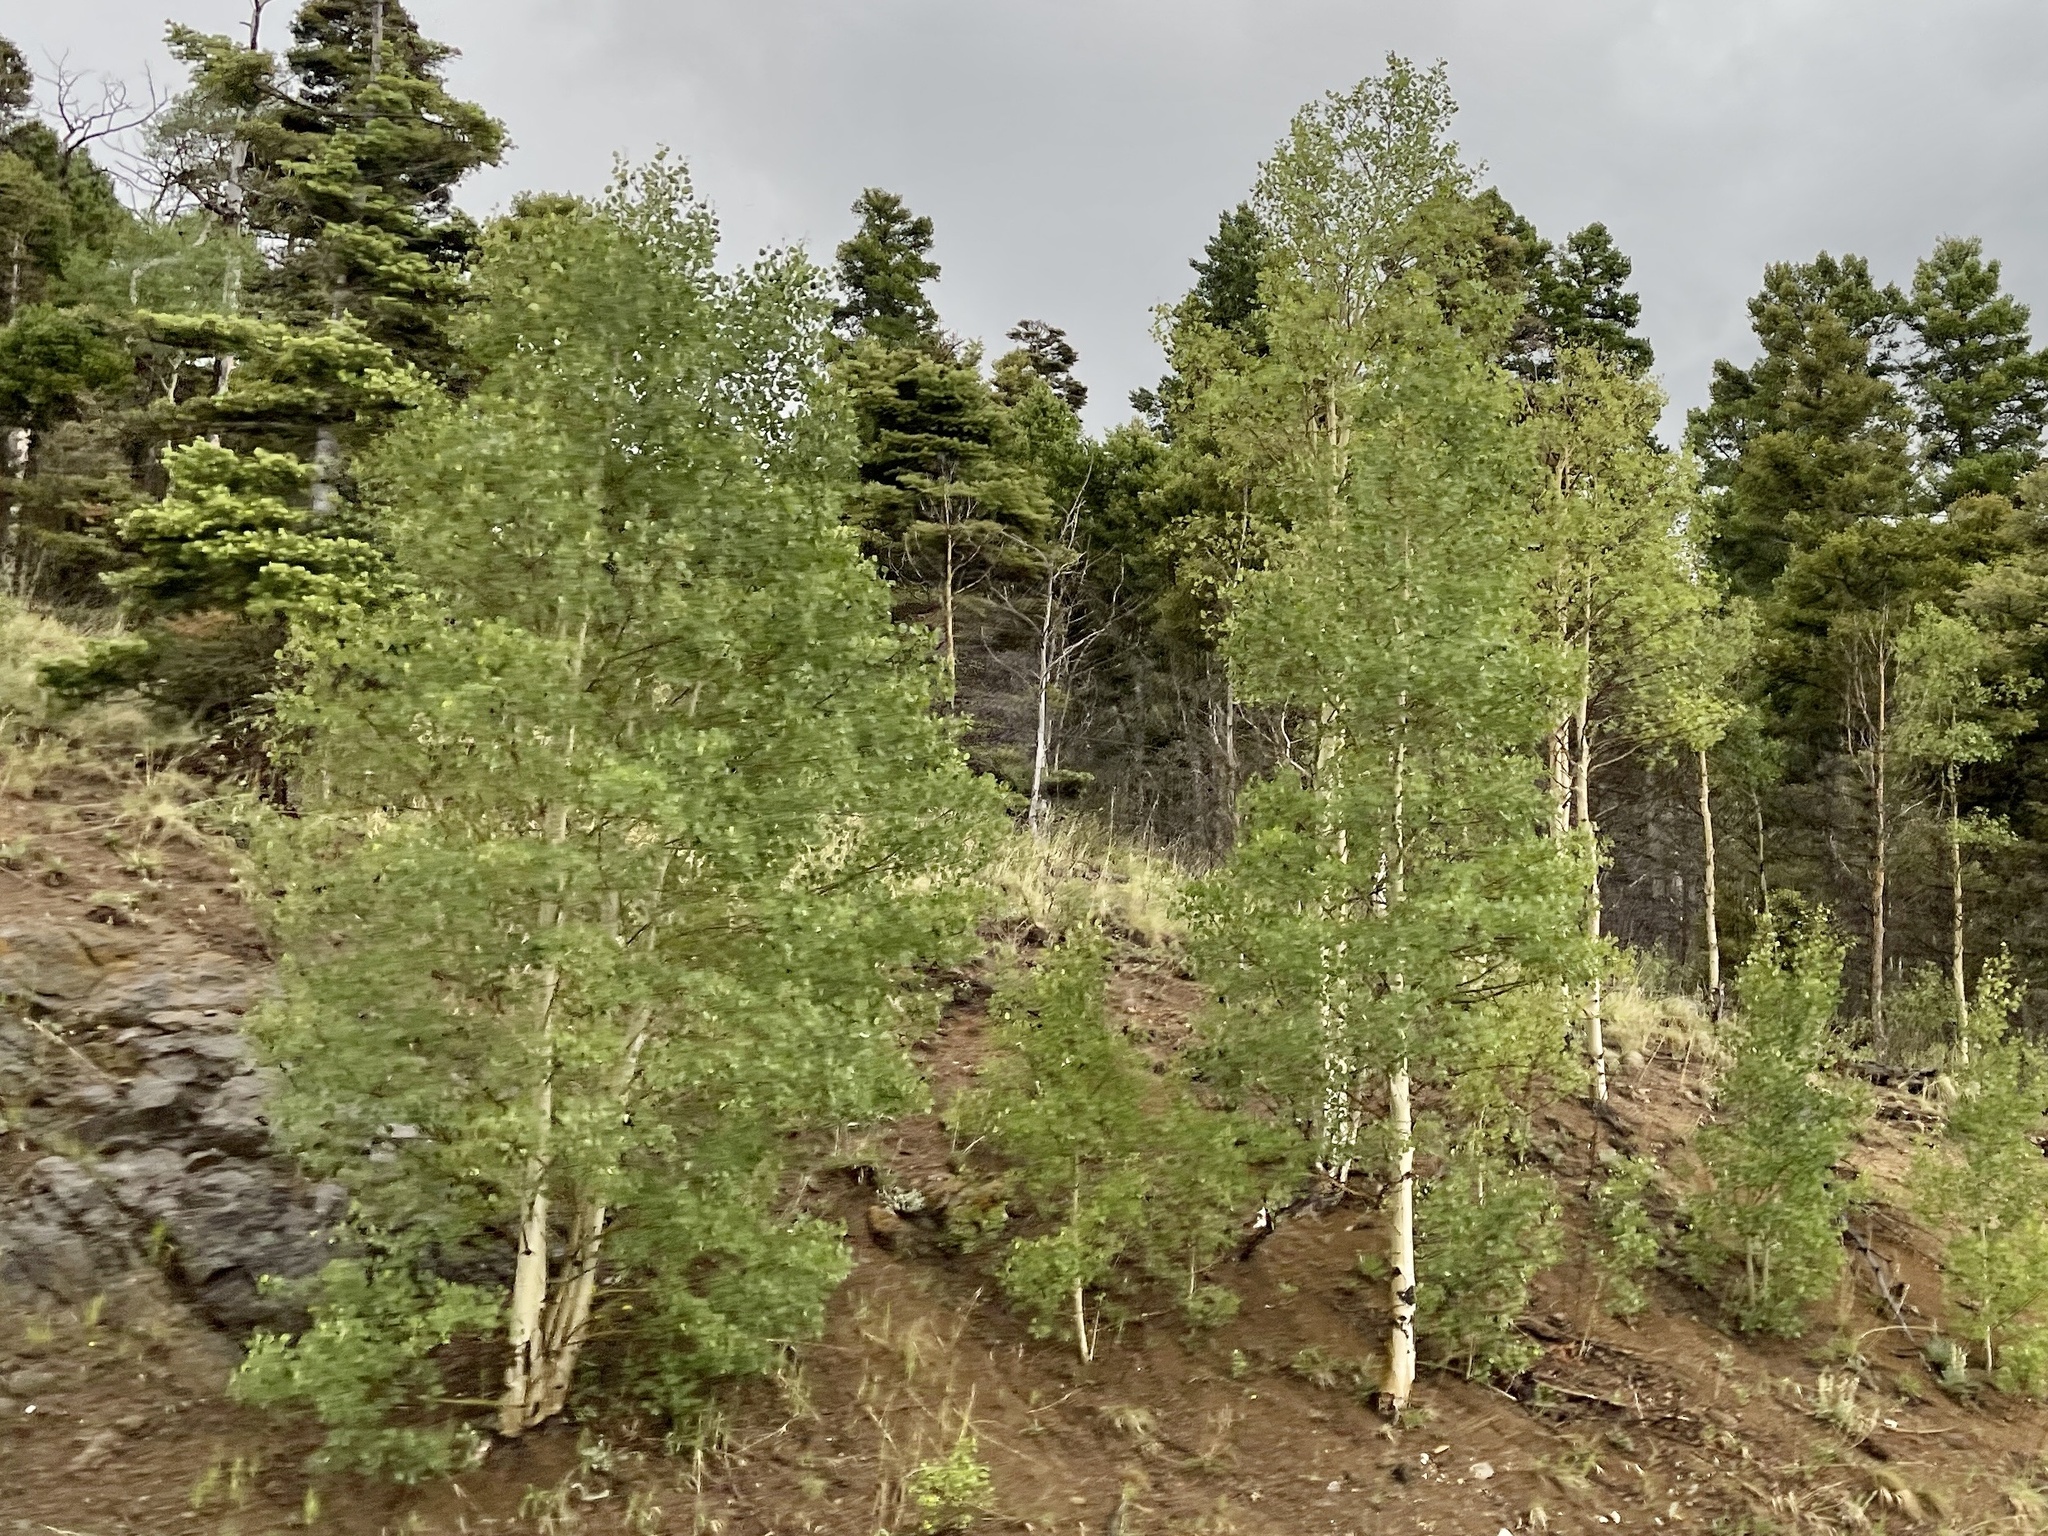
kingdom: Plantae
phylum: Tracheophyta
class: Magnoliopsida
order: Malpighiales
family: Salicaceae
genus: Populus
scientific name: Populus tremuloides
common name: Quaking aspen
